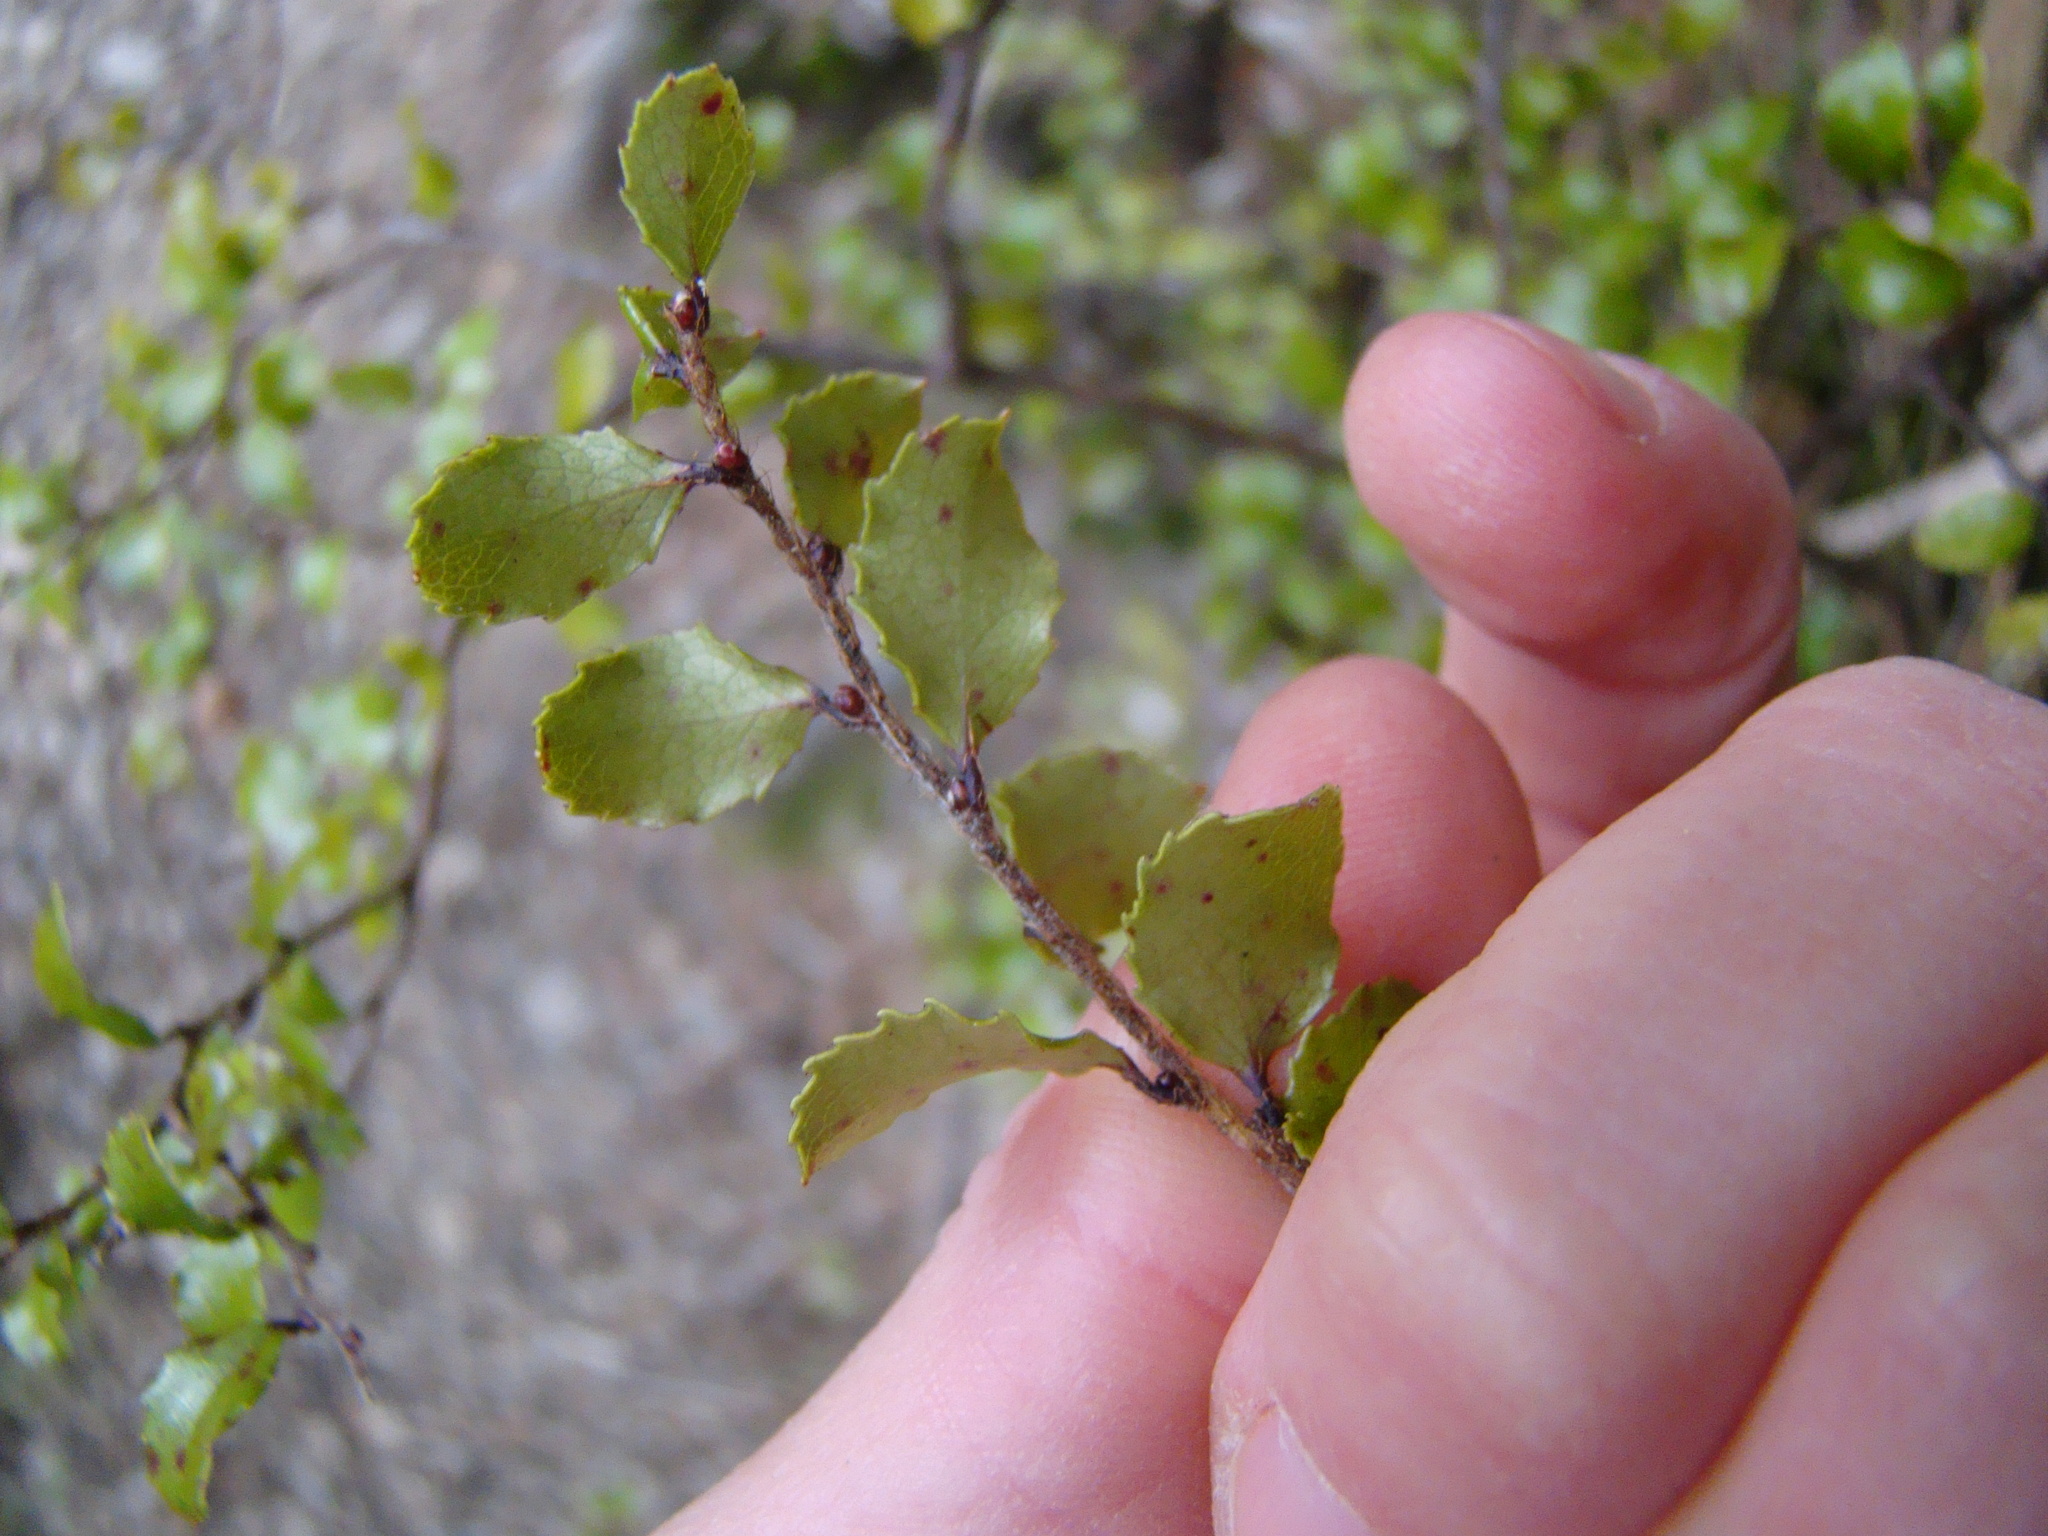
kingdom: Plantae
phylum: Tracheophyta
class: Magnoliopsida
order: Ericales
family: Ericaceae
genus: Gaultheria
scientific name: Gaultheria antipoda
